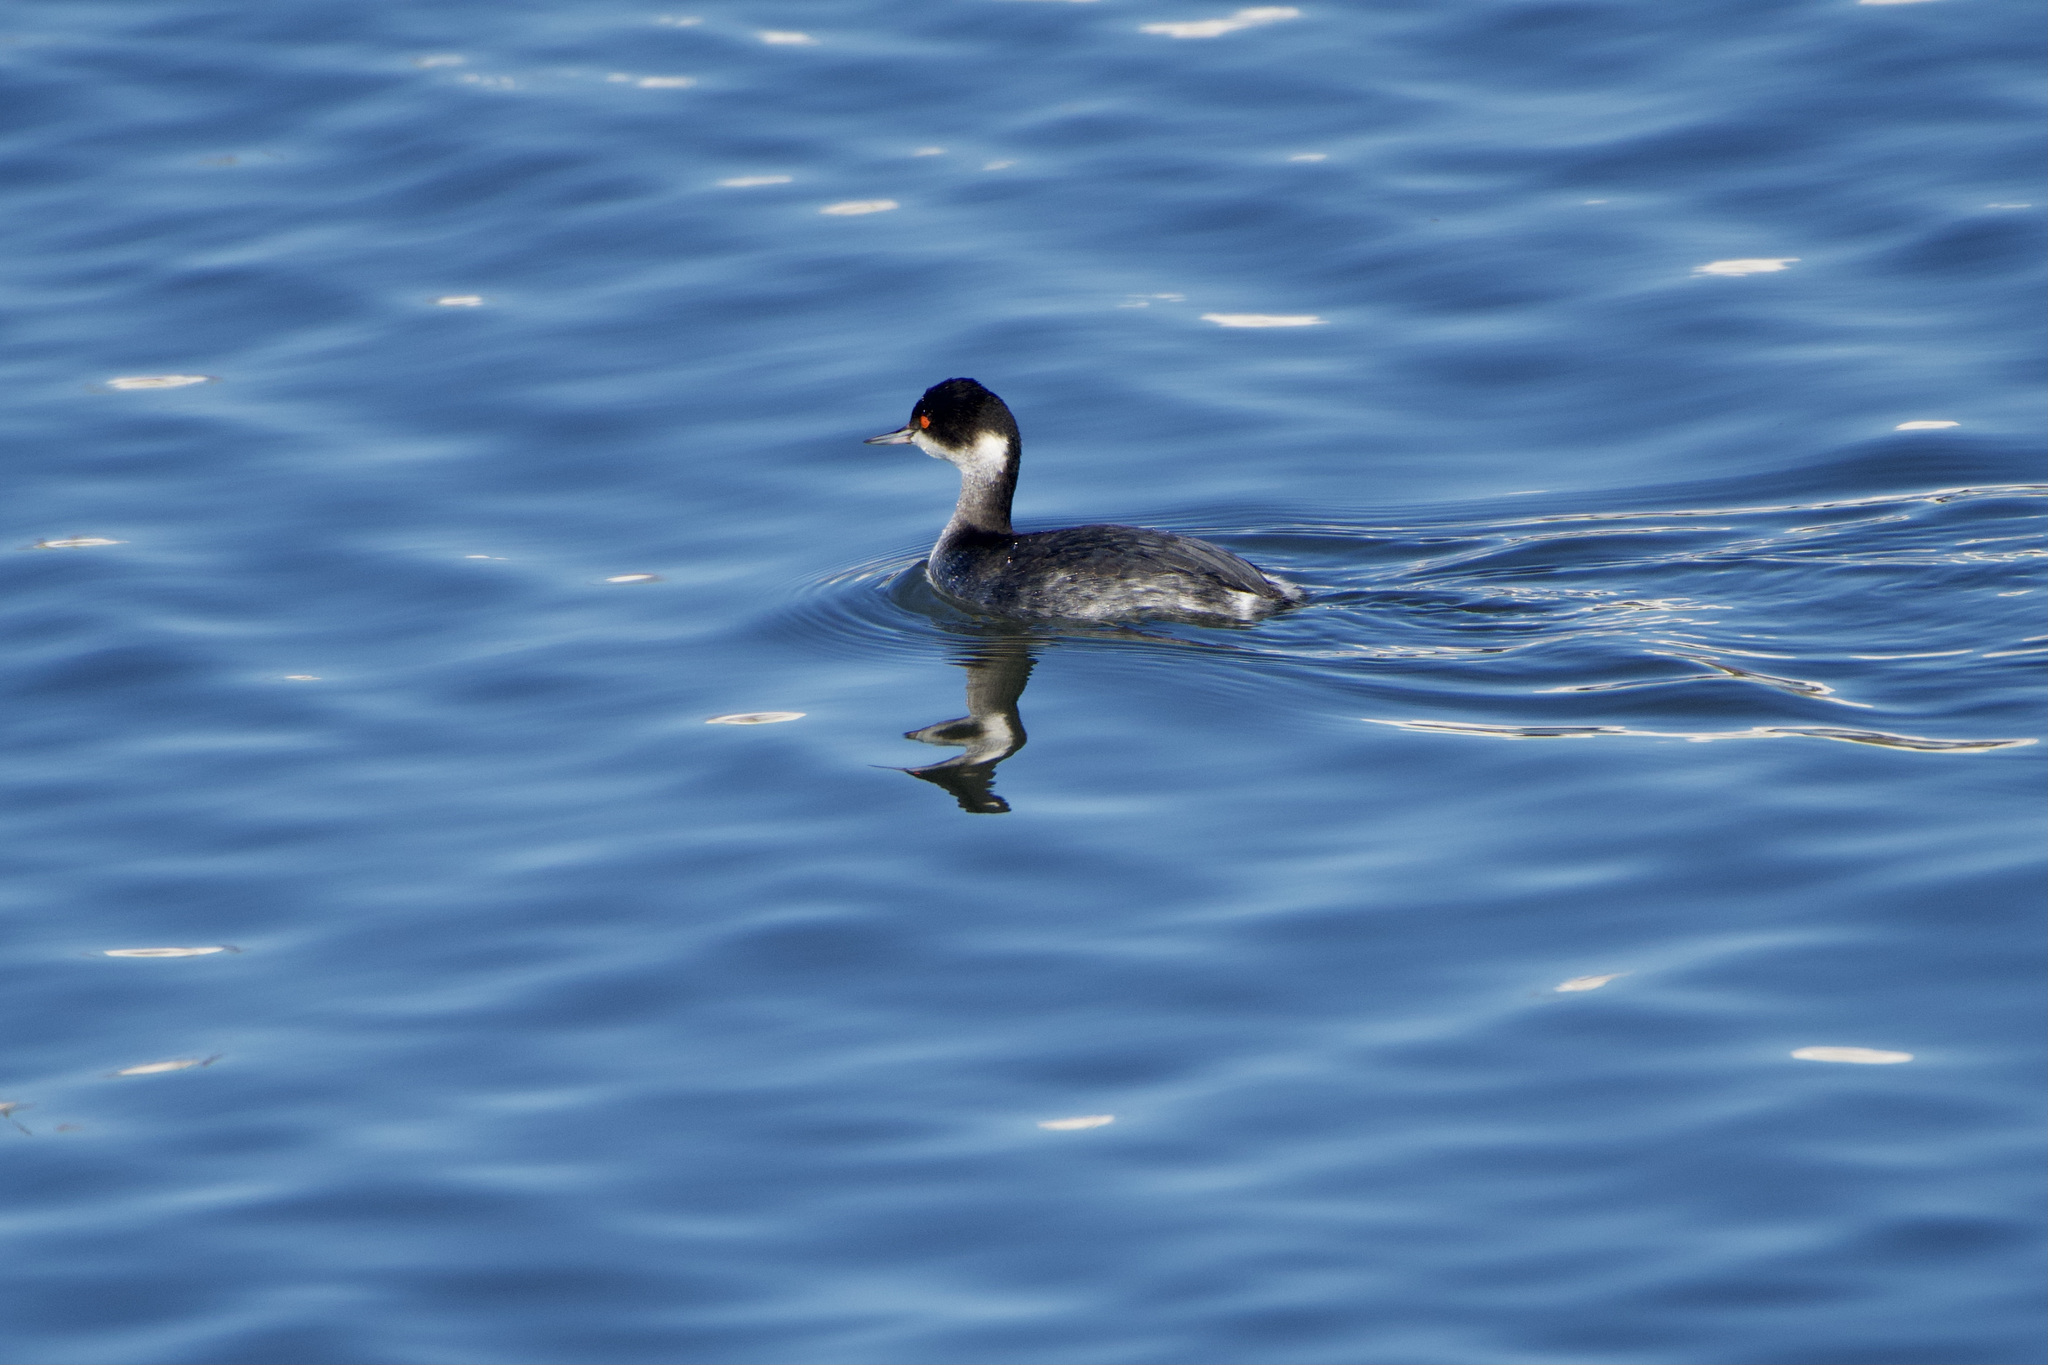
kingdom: Animalia
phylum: Chordata
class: Aves
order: Podicipediformes
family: Podicipedidae
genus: Podiceps
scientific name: Podiceps nigricollis
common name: Black-necked grebe
